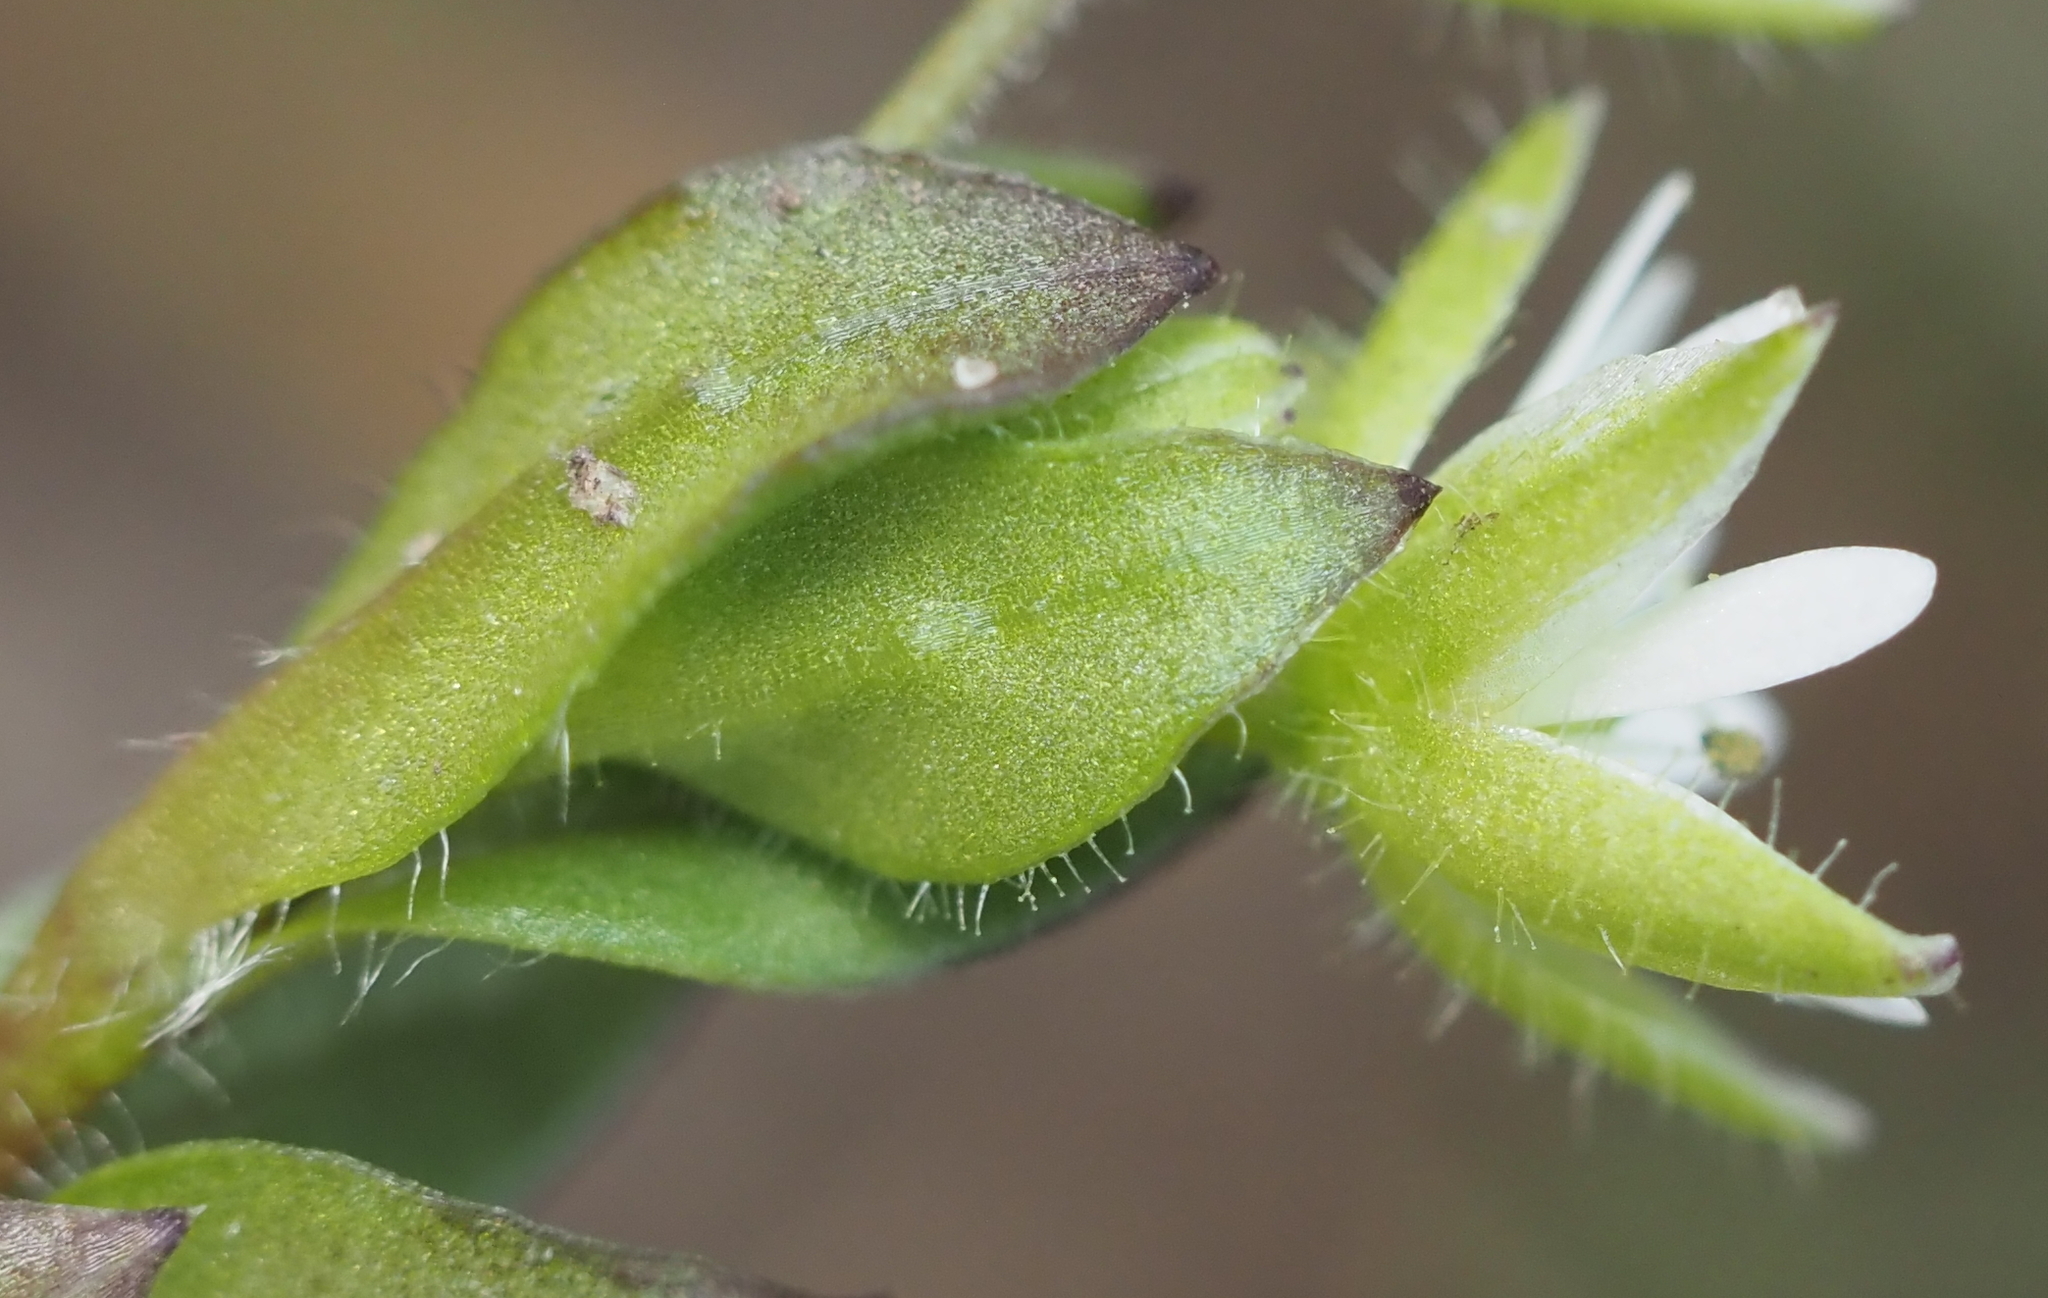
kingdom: Plantae
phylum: Tracheophyta
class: Magnoliopsida
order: Caryophyllales
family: Caryophyllaceae
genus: Stellaria
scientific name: Stellaria media
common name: Common chickweed
